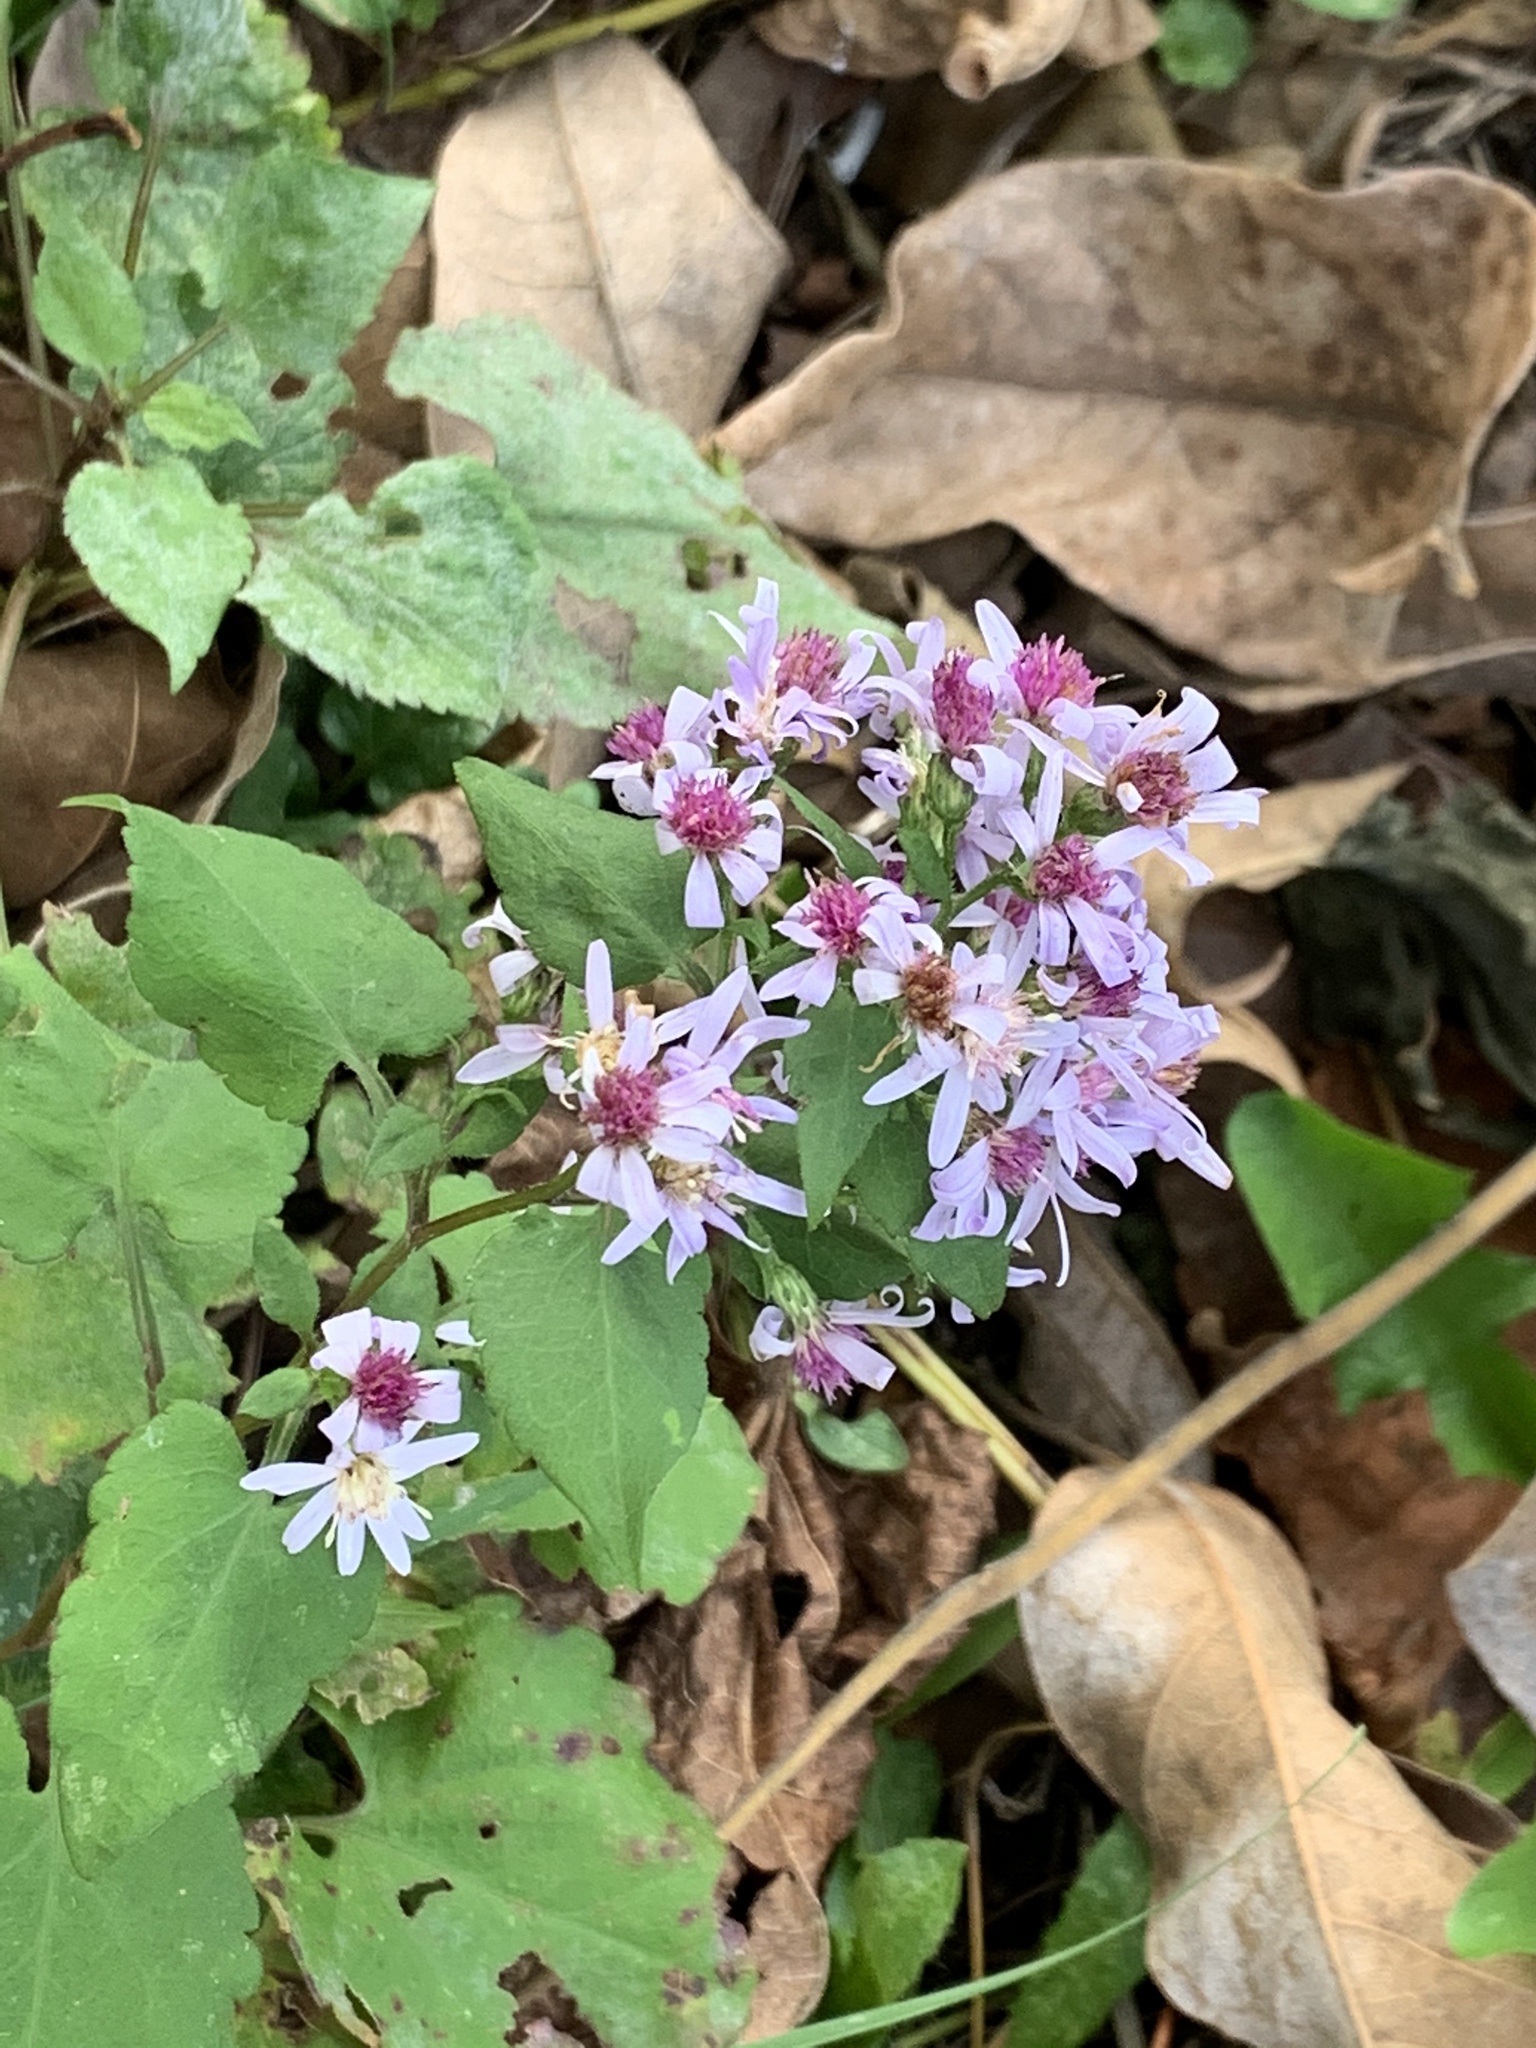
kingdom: Plantae
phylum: Tracheophyta
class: Magnoliopsida
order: Asterales
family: Asteraceae
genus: Symphyotrichum
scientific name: Symphyotrichum cordifolium
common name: Beeweed
